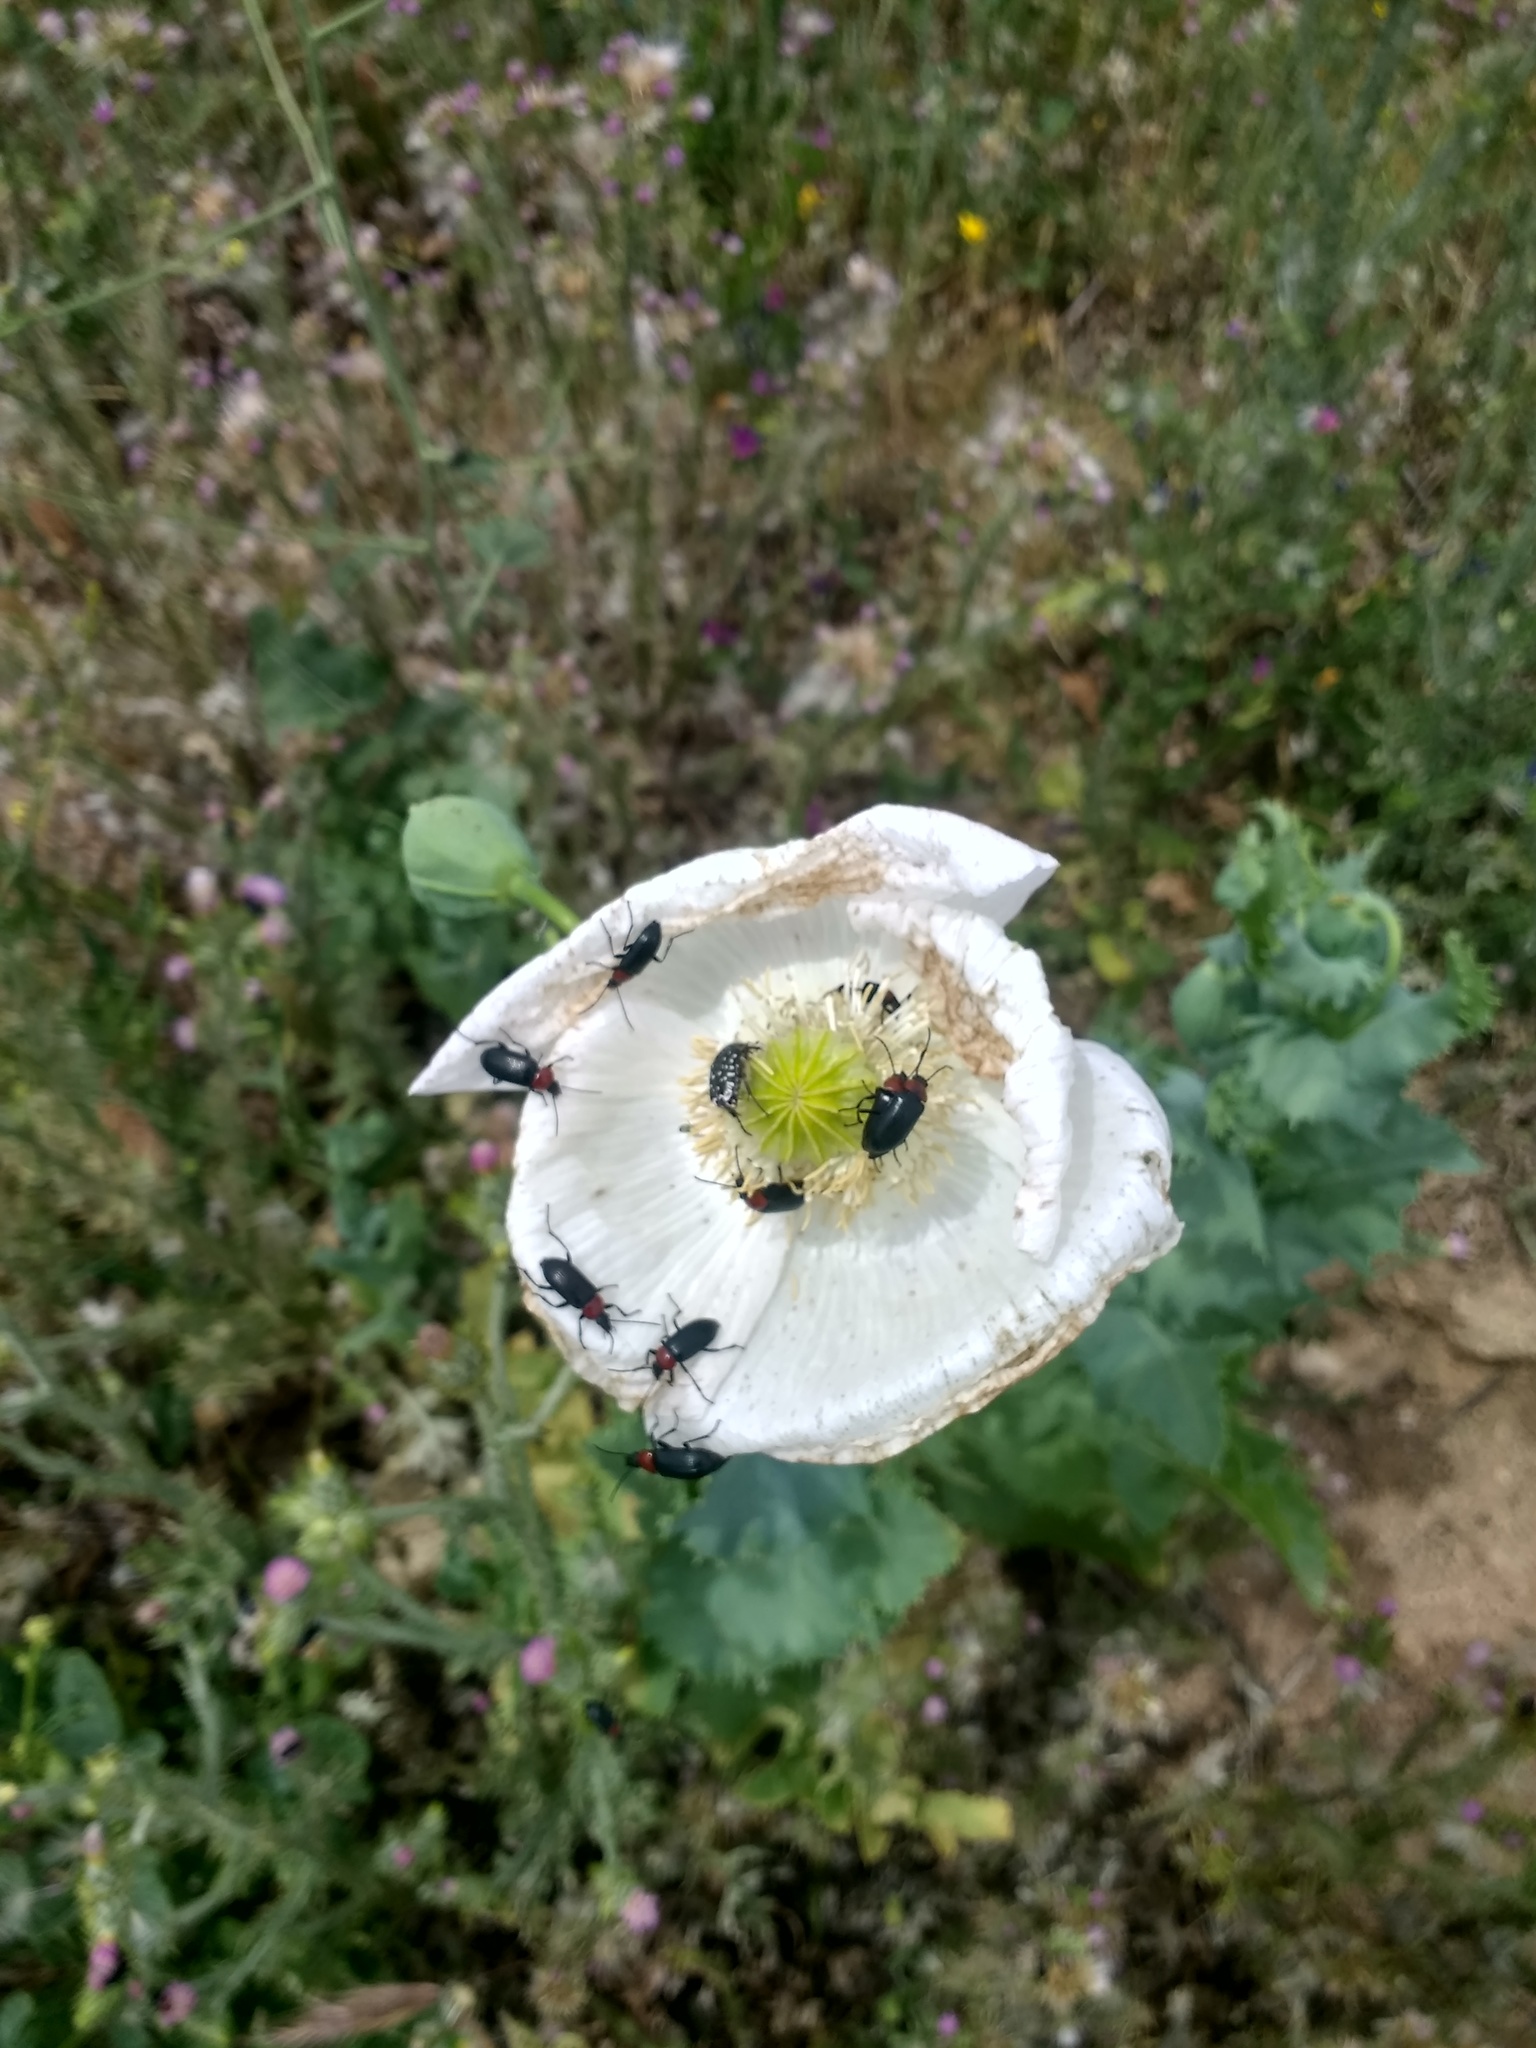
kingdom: Plantae
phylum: Tracheophyta
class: Magnoliopsida
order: Ranunculales
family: Papaveraceae
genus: Papaver
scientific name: Papaver somniferum
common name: Opium poppy
